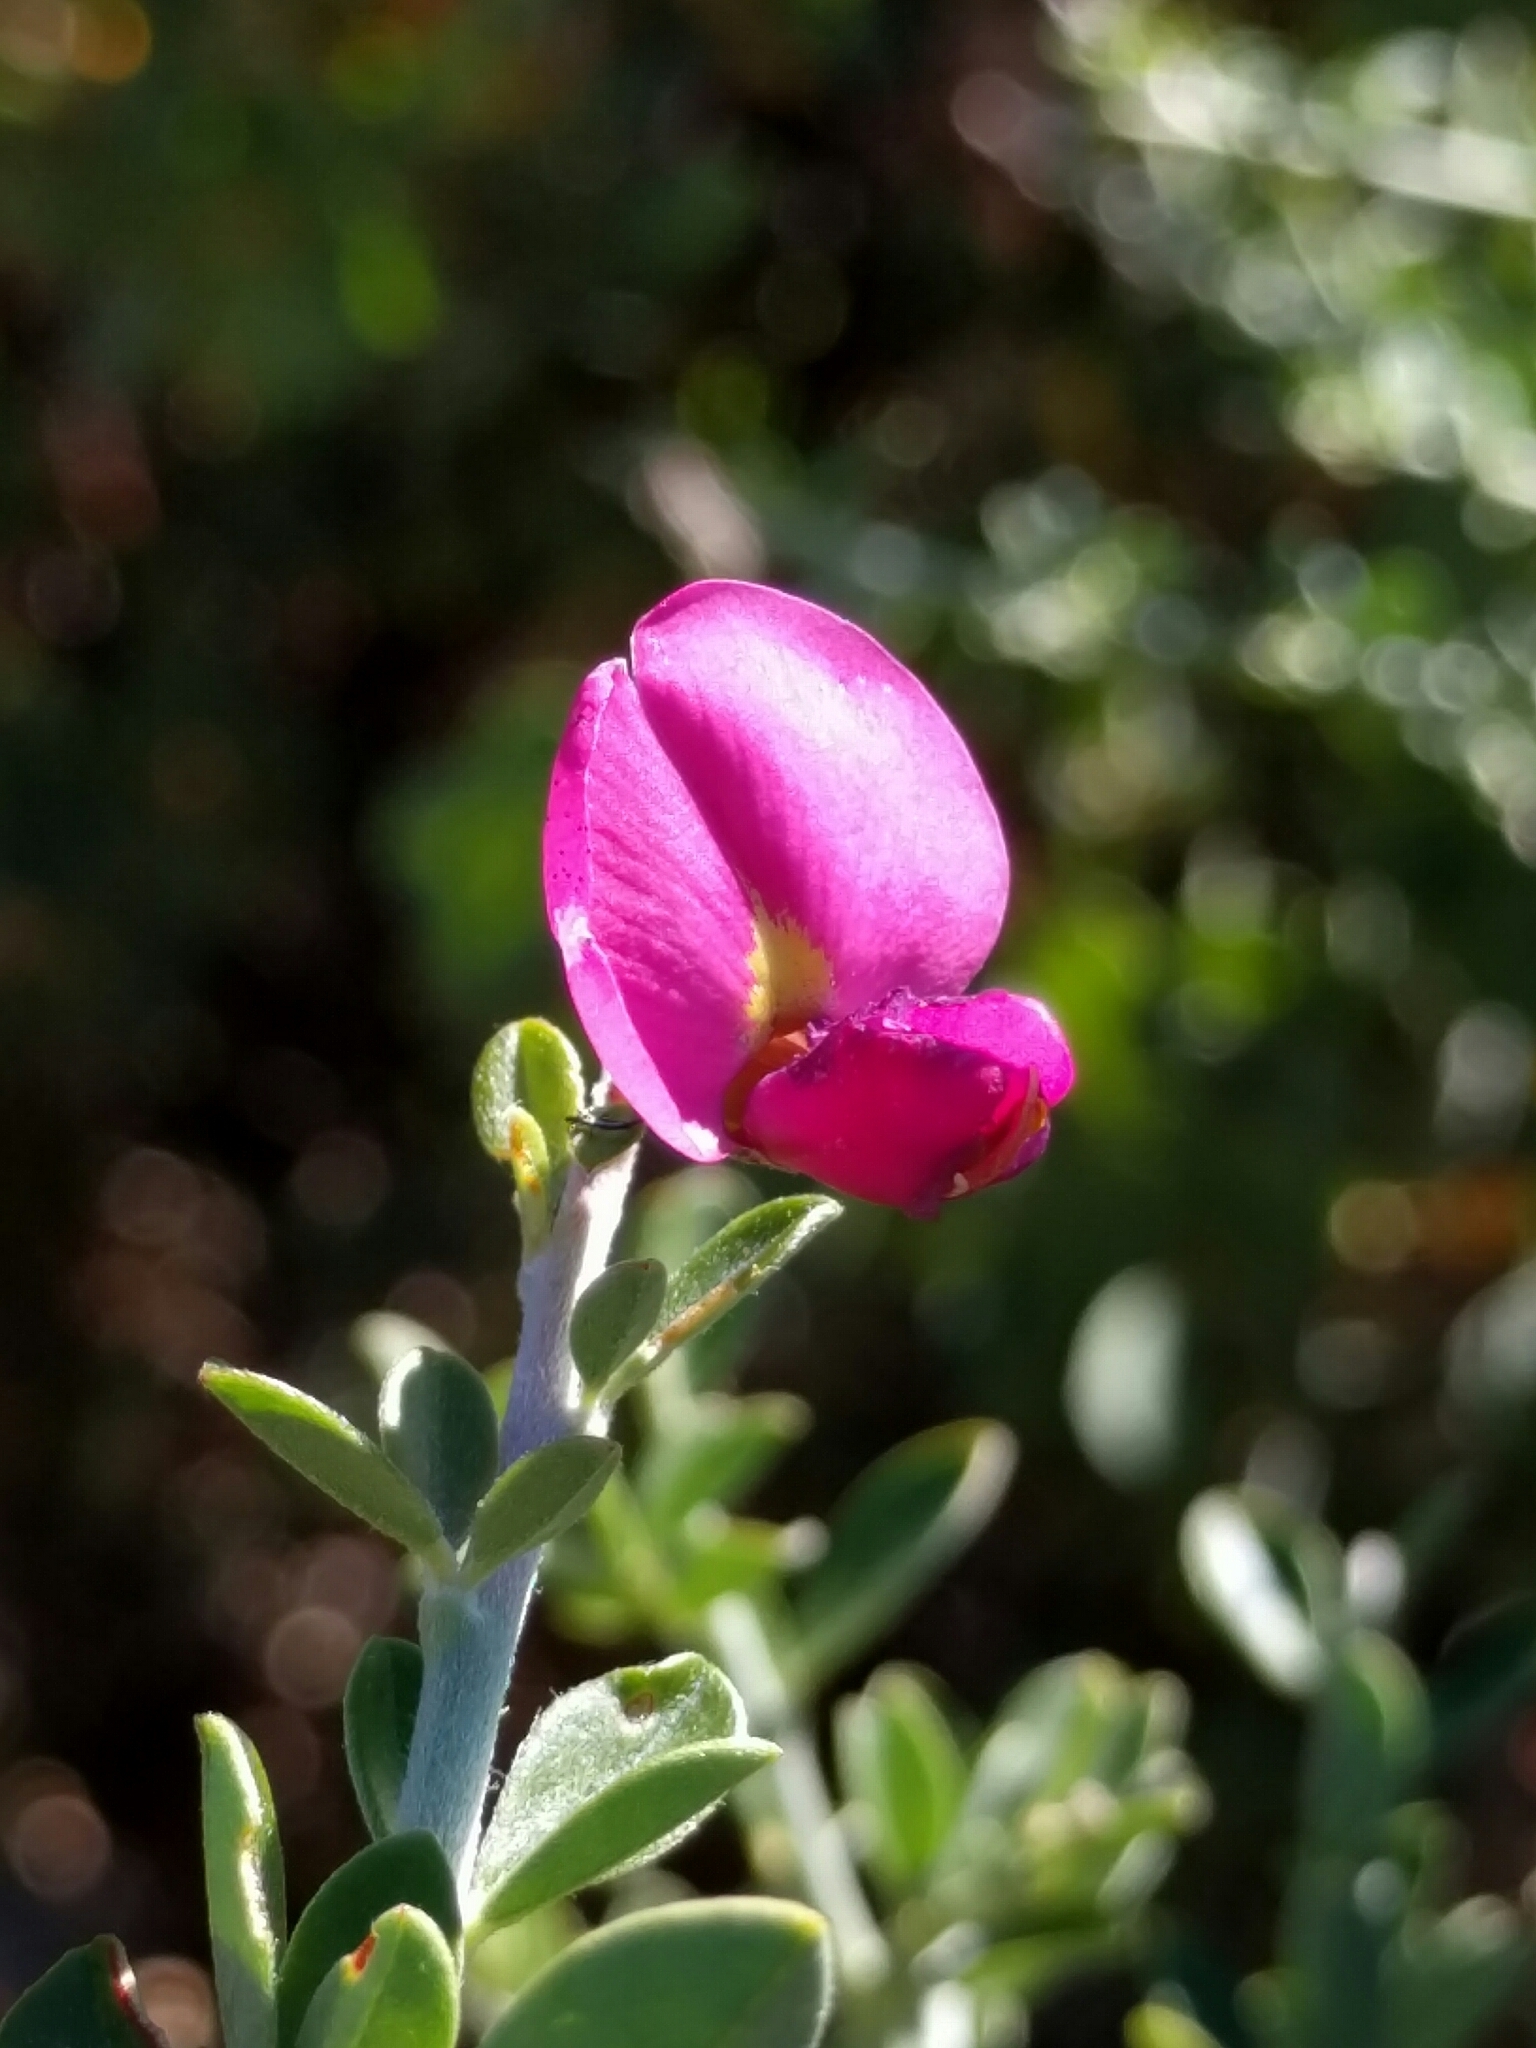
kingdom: Plantae
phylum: Tracheophyta
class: Magnoliopsida
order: Fabales
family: Fabaceae
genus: Pickeringia
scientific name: Pickeringia montana
